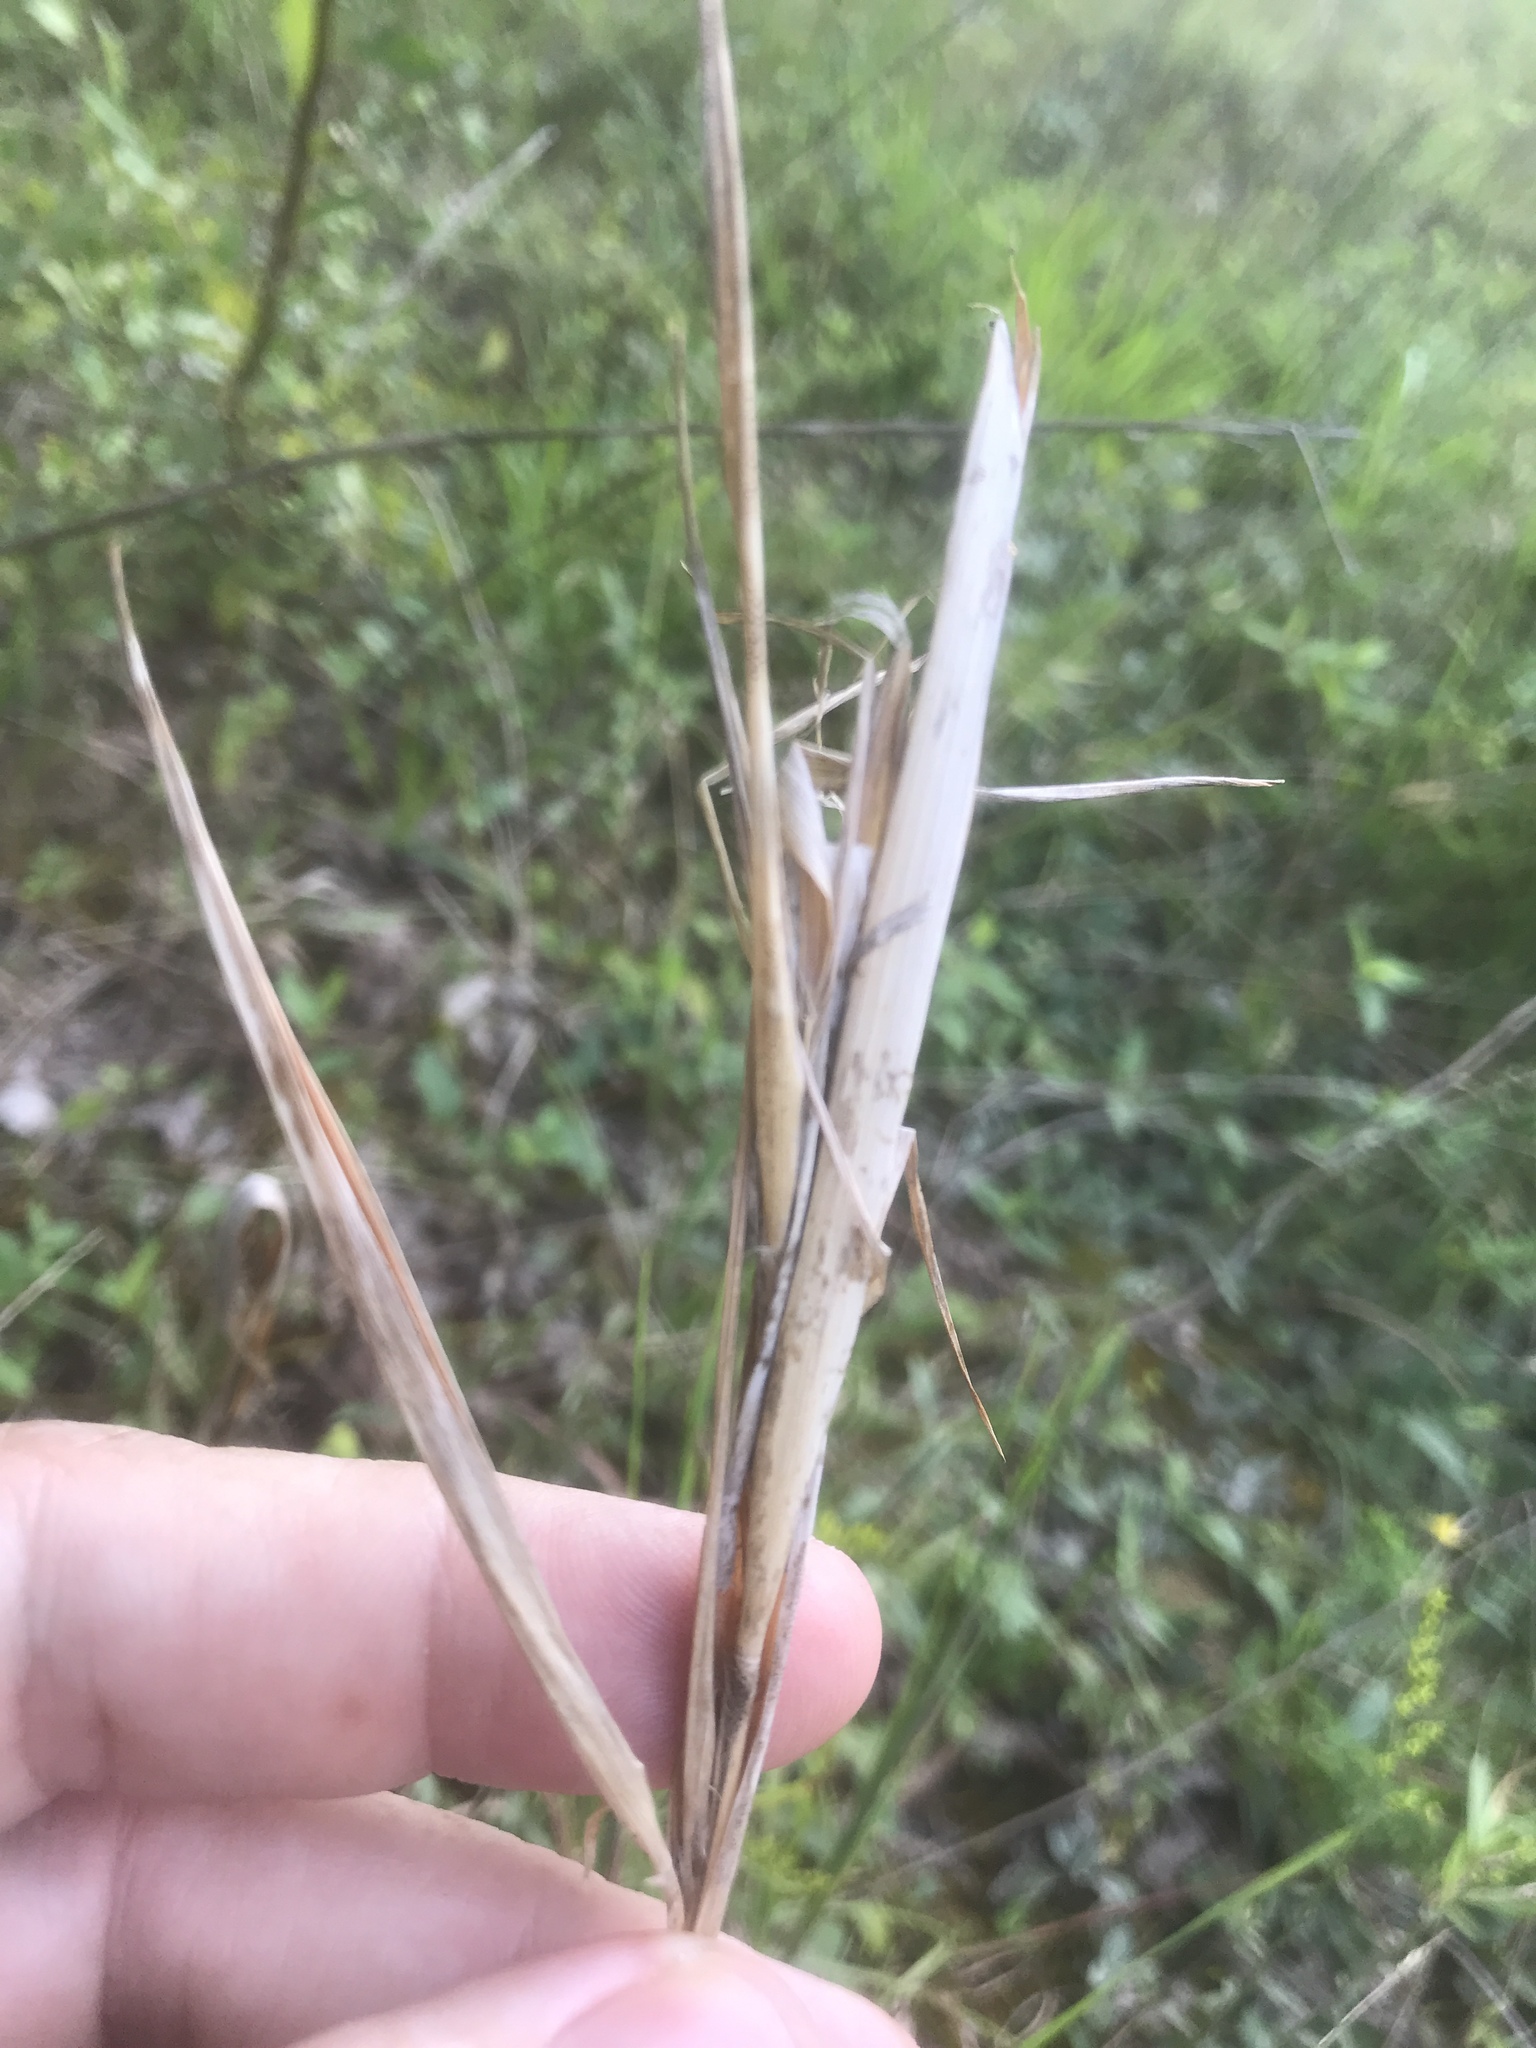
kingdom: Plantae
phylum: Tracheophyta
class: Liliopsida
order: Poales
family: Poaceae
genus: Andropogon
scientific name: Andropogon gyrans
